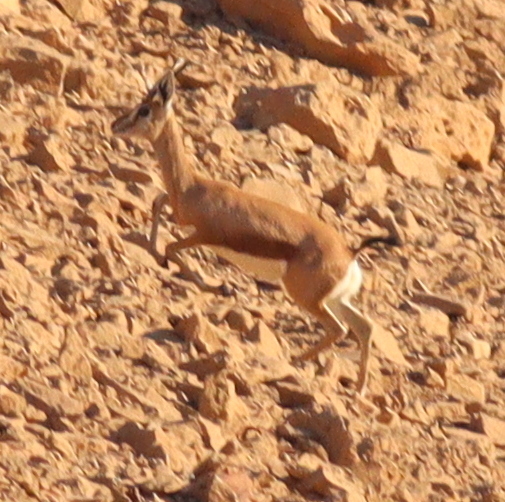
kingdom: Animalia
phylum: Chordata
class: Mammalia
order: Artiodactyla
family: Bovidae
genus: Gazella
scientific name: Gazella dorcas
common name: Dorcas gazelle
